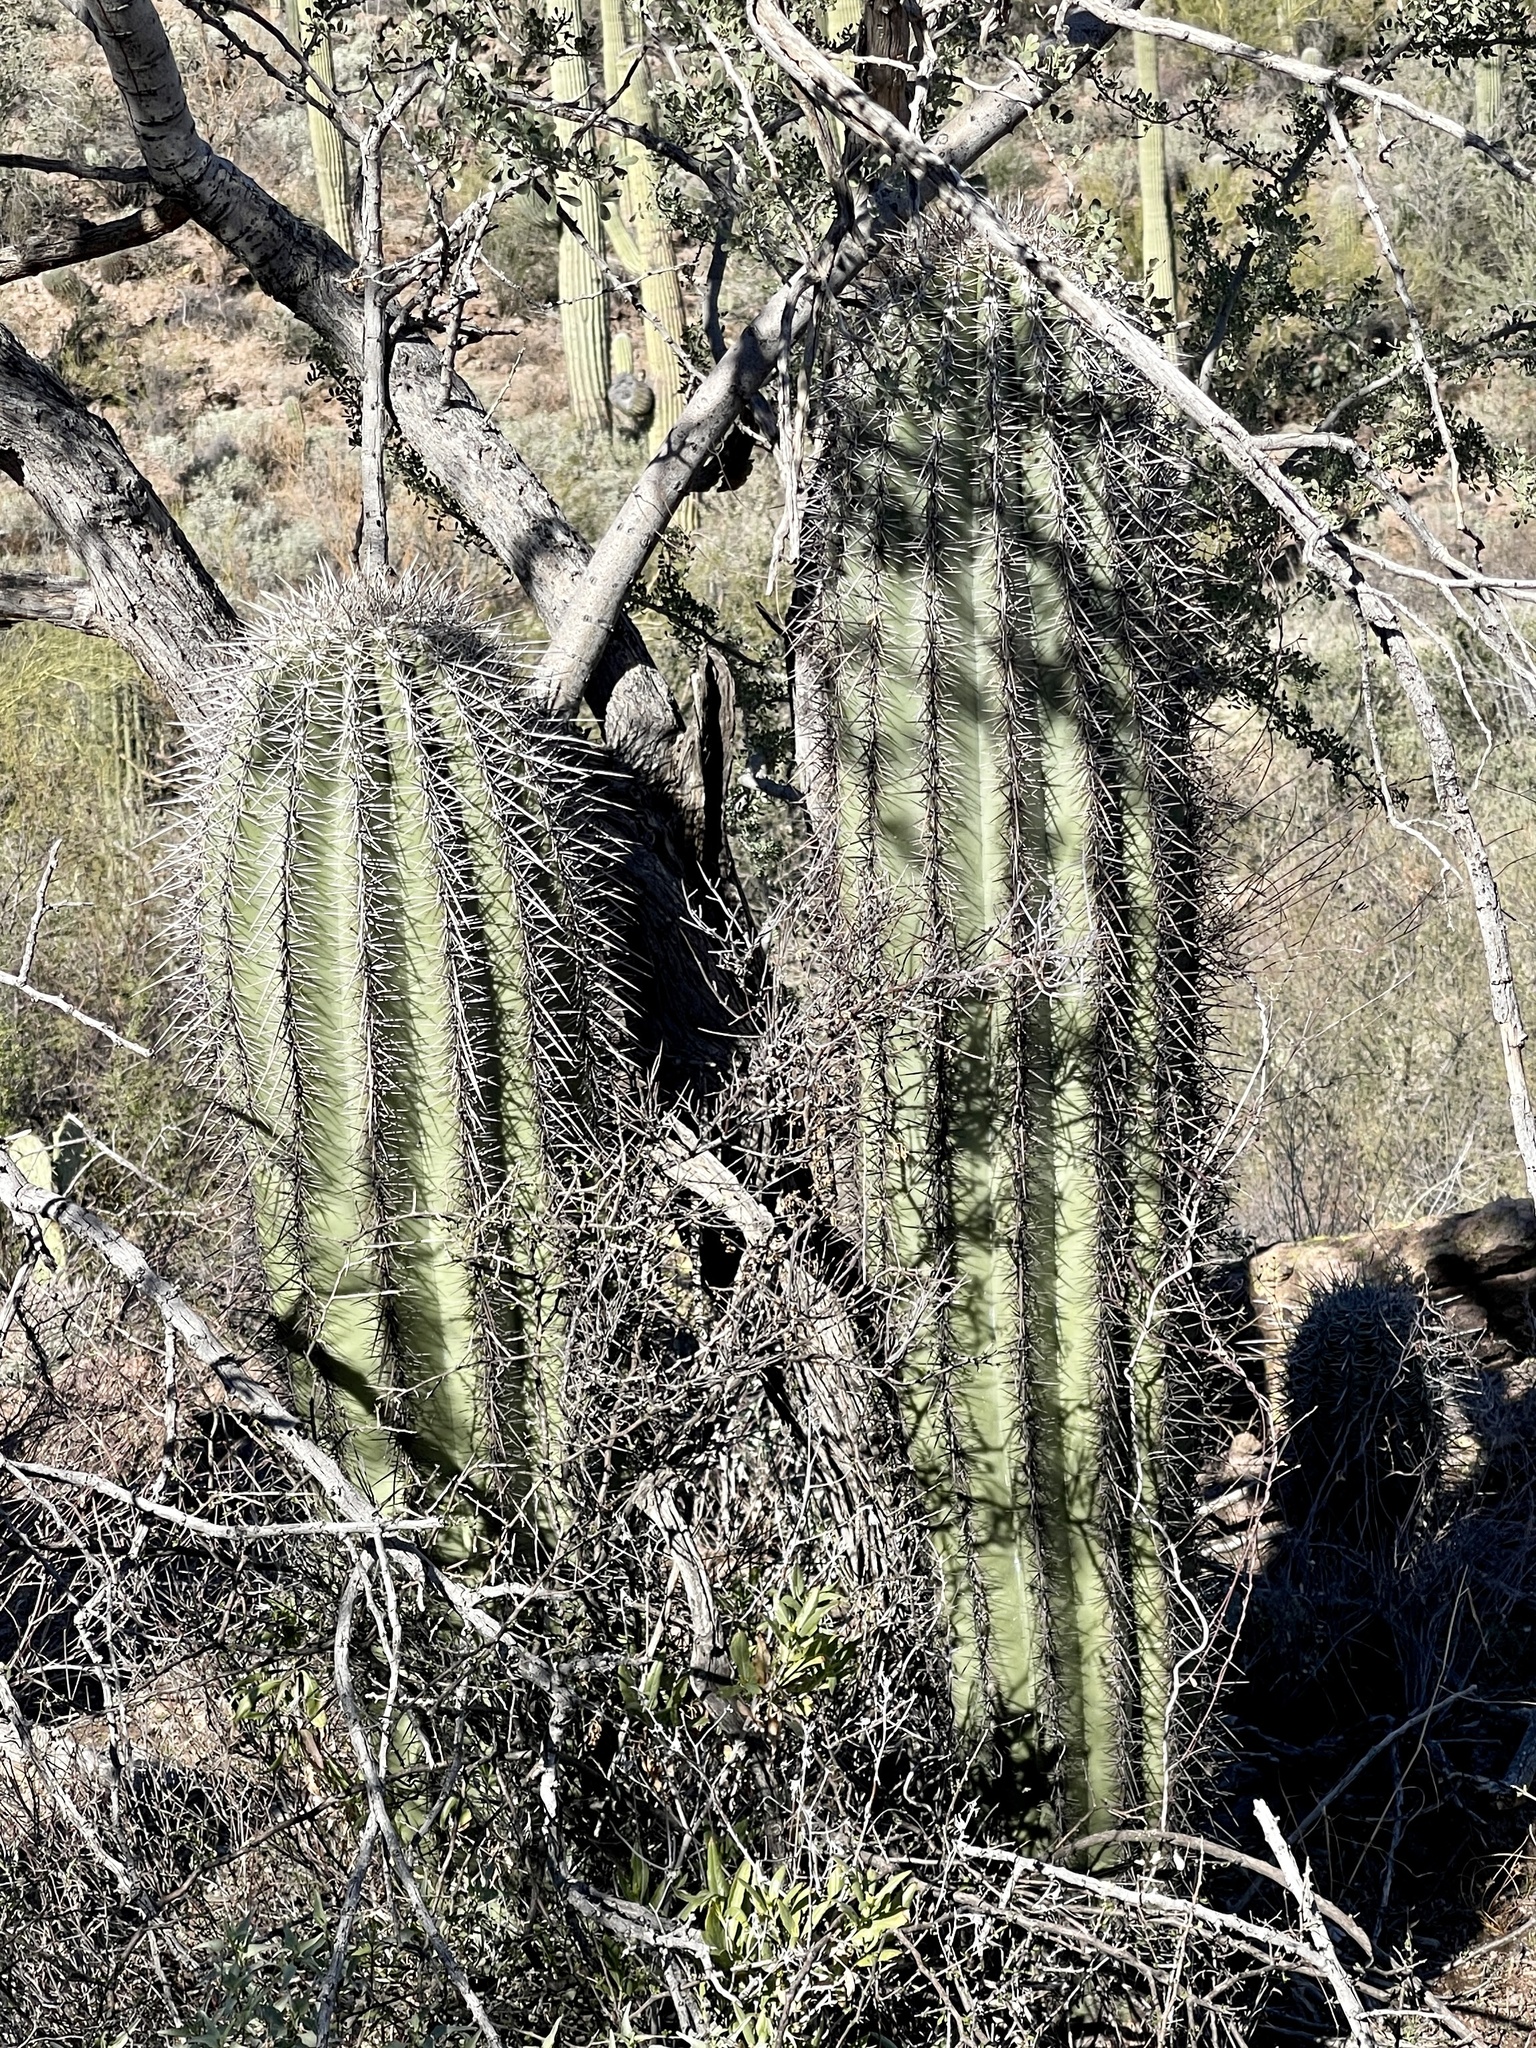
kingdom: Plantae
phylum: Tracheophyta
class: Magnoliopsida
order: Caryophyllales
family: Cactaceae
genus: Carnegiea
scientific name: Carnegiea gigantea
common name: Saguaro
